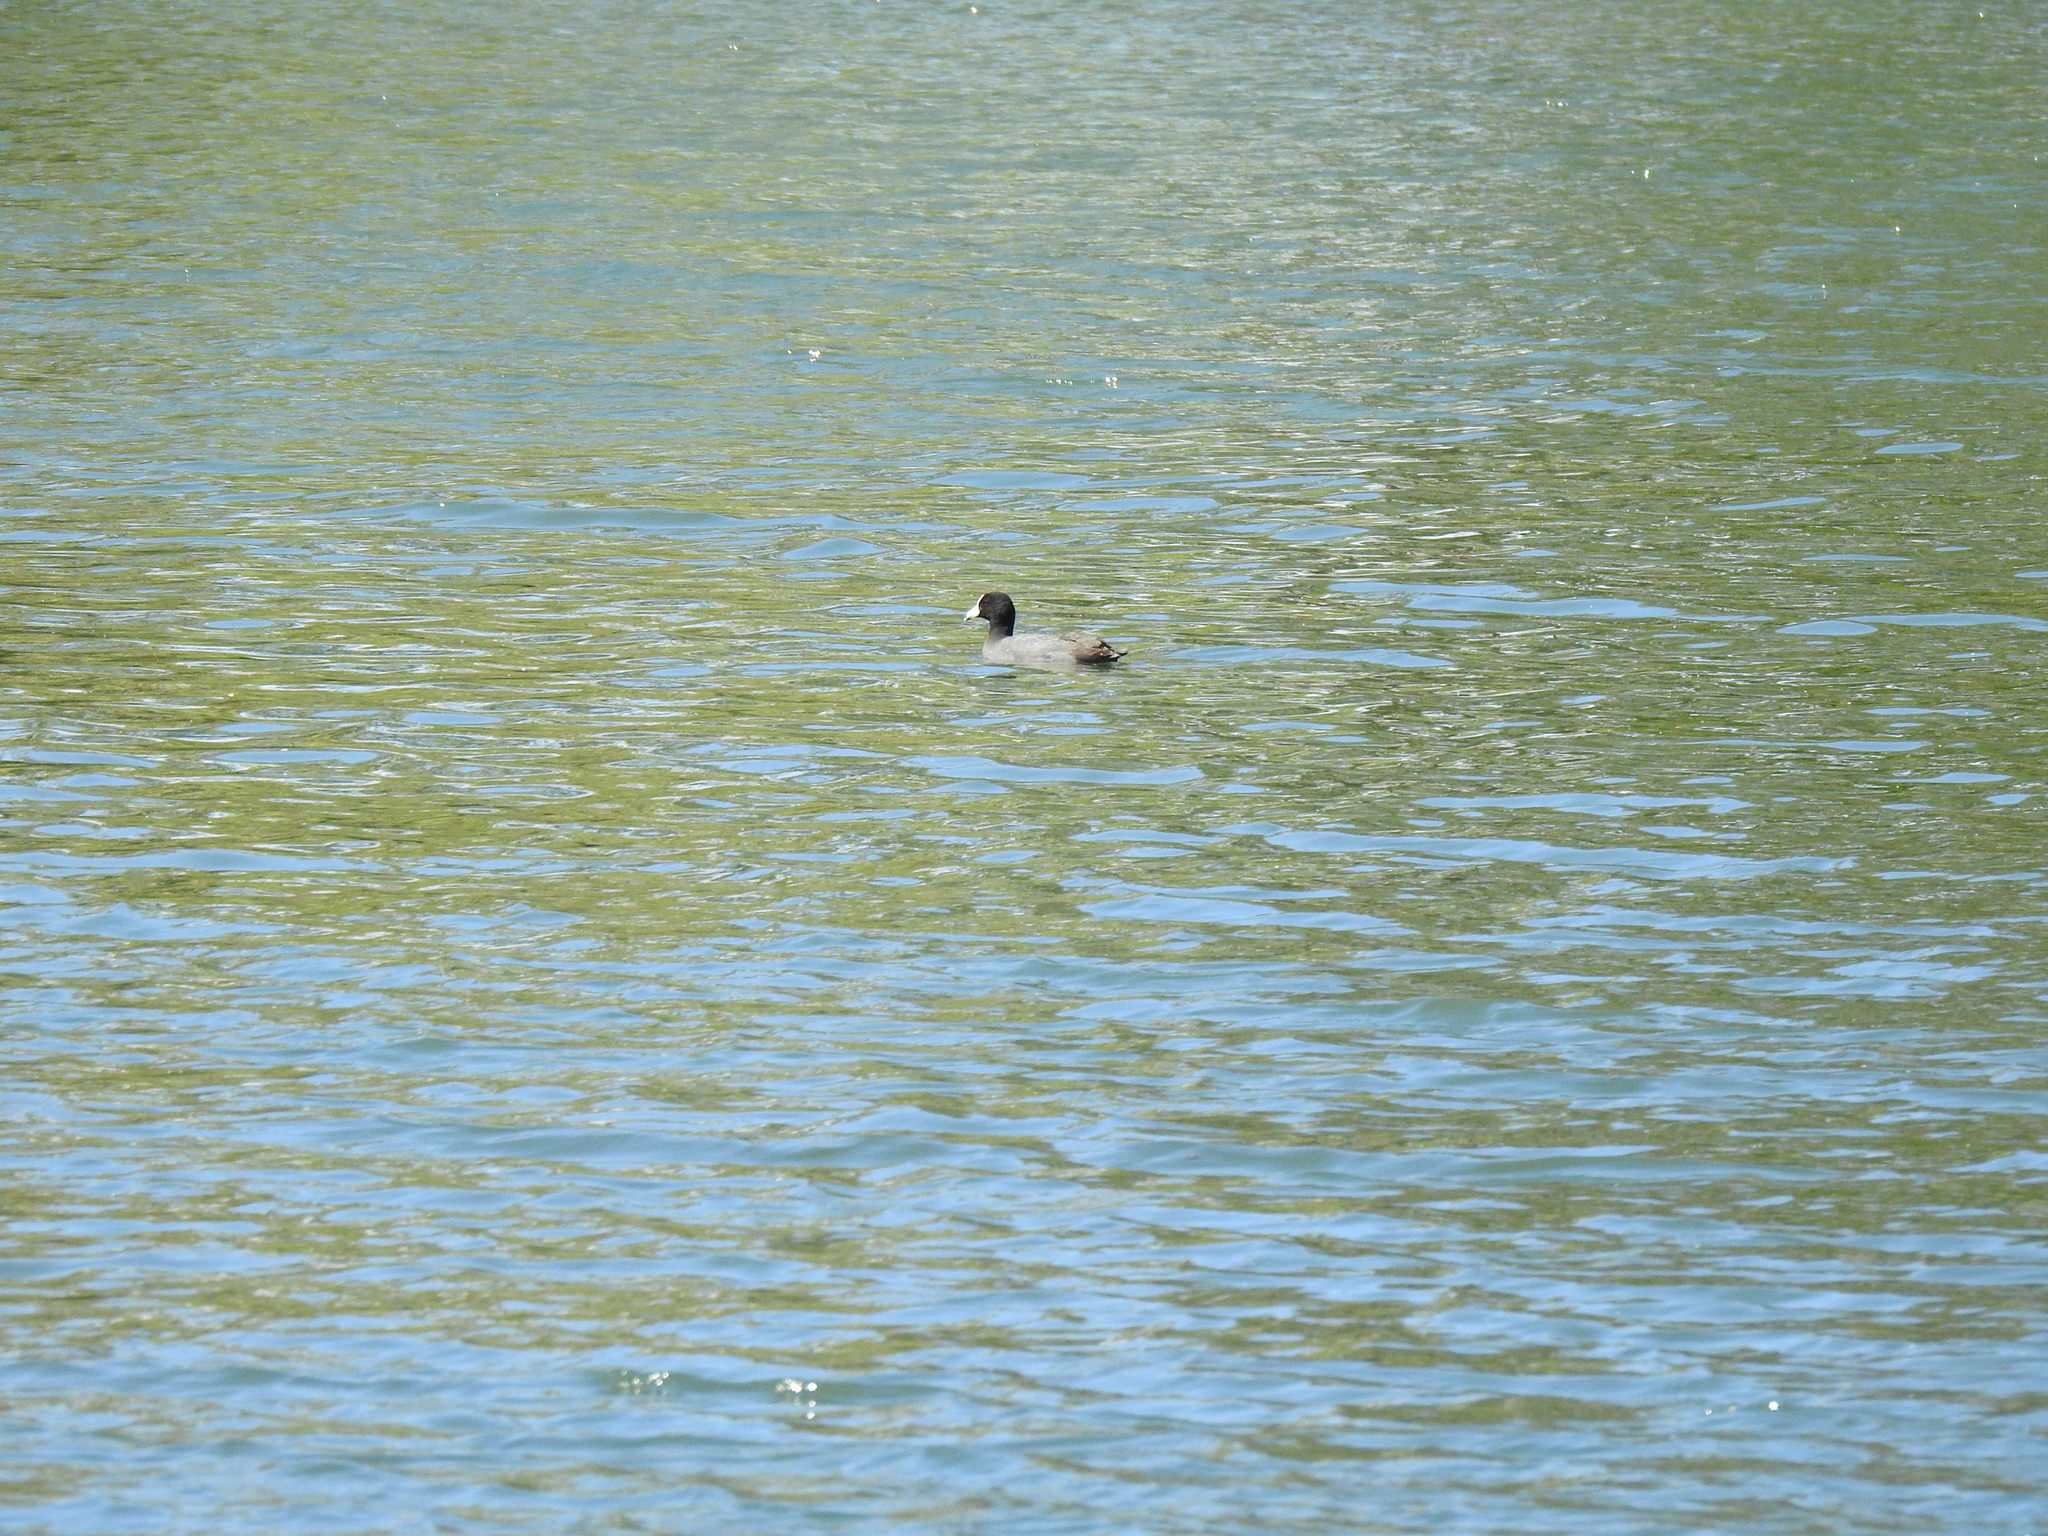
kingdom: Animalia
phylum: Chordata
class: Aves
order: Gruiformes
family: Rallidae
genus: Fulica
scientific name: Fulica americana
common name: American coot
